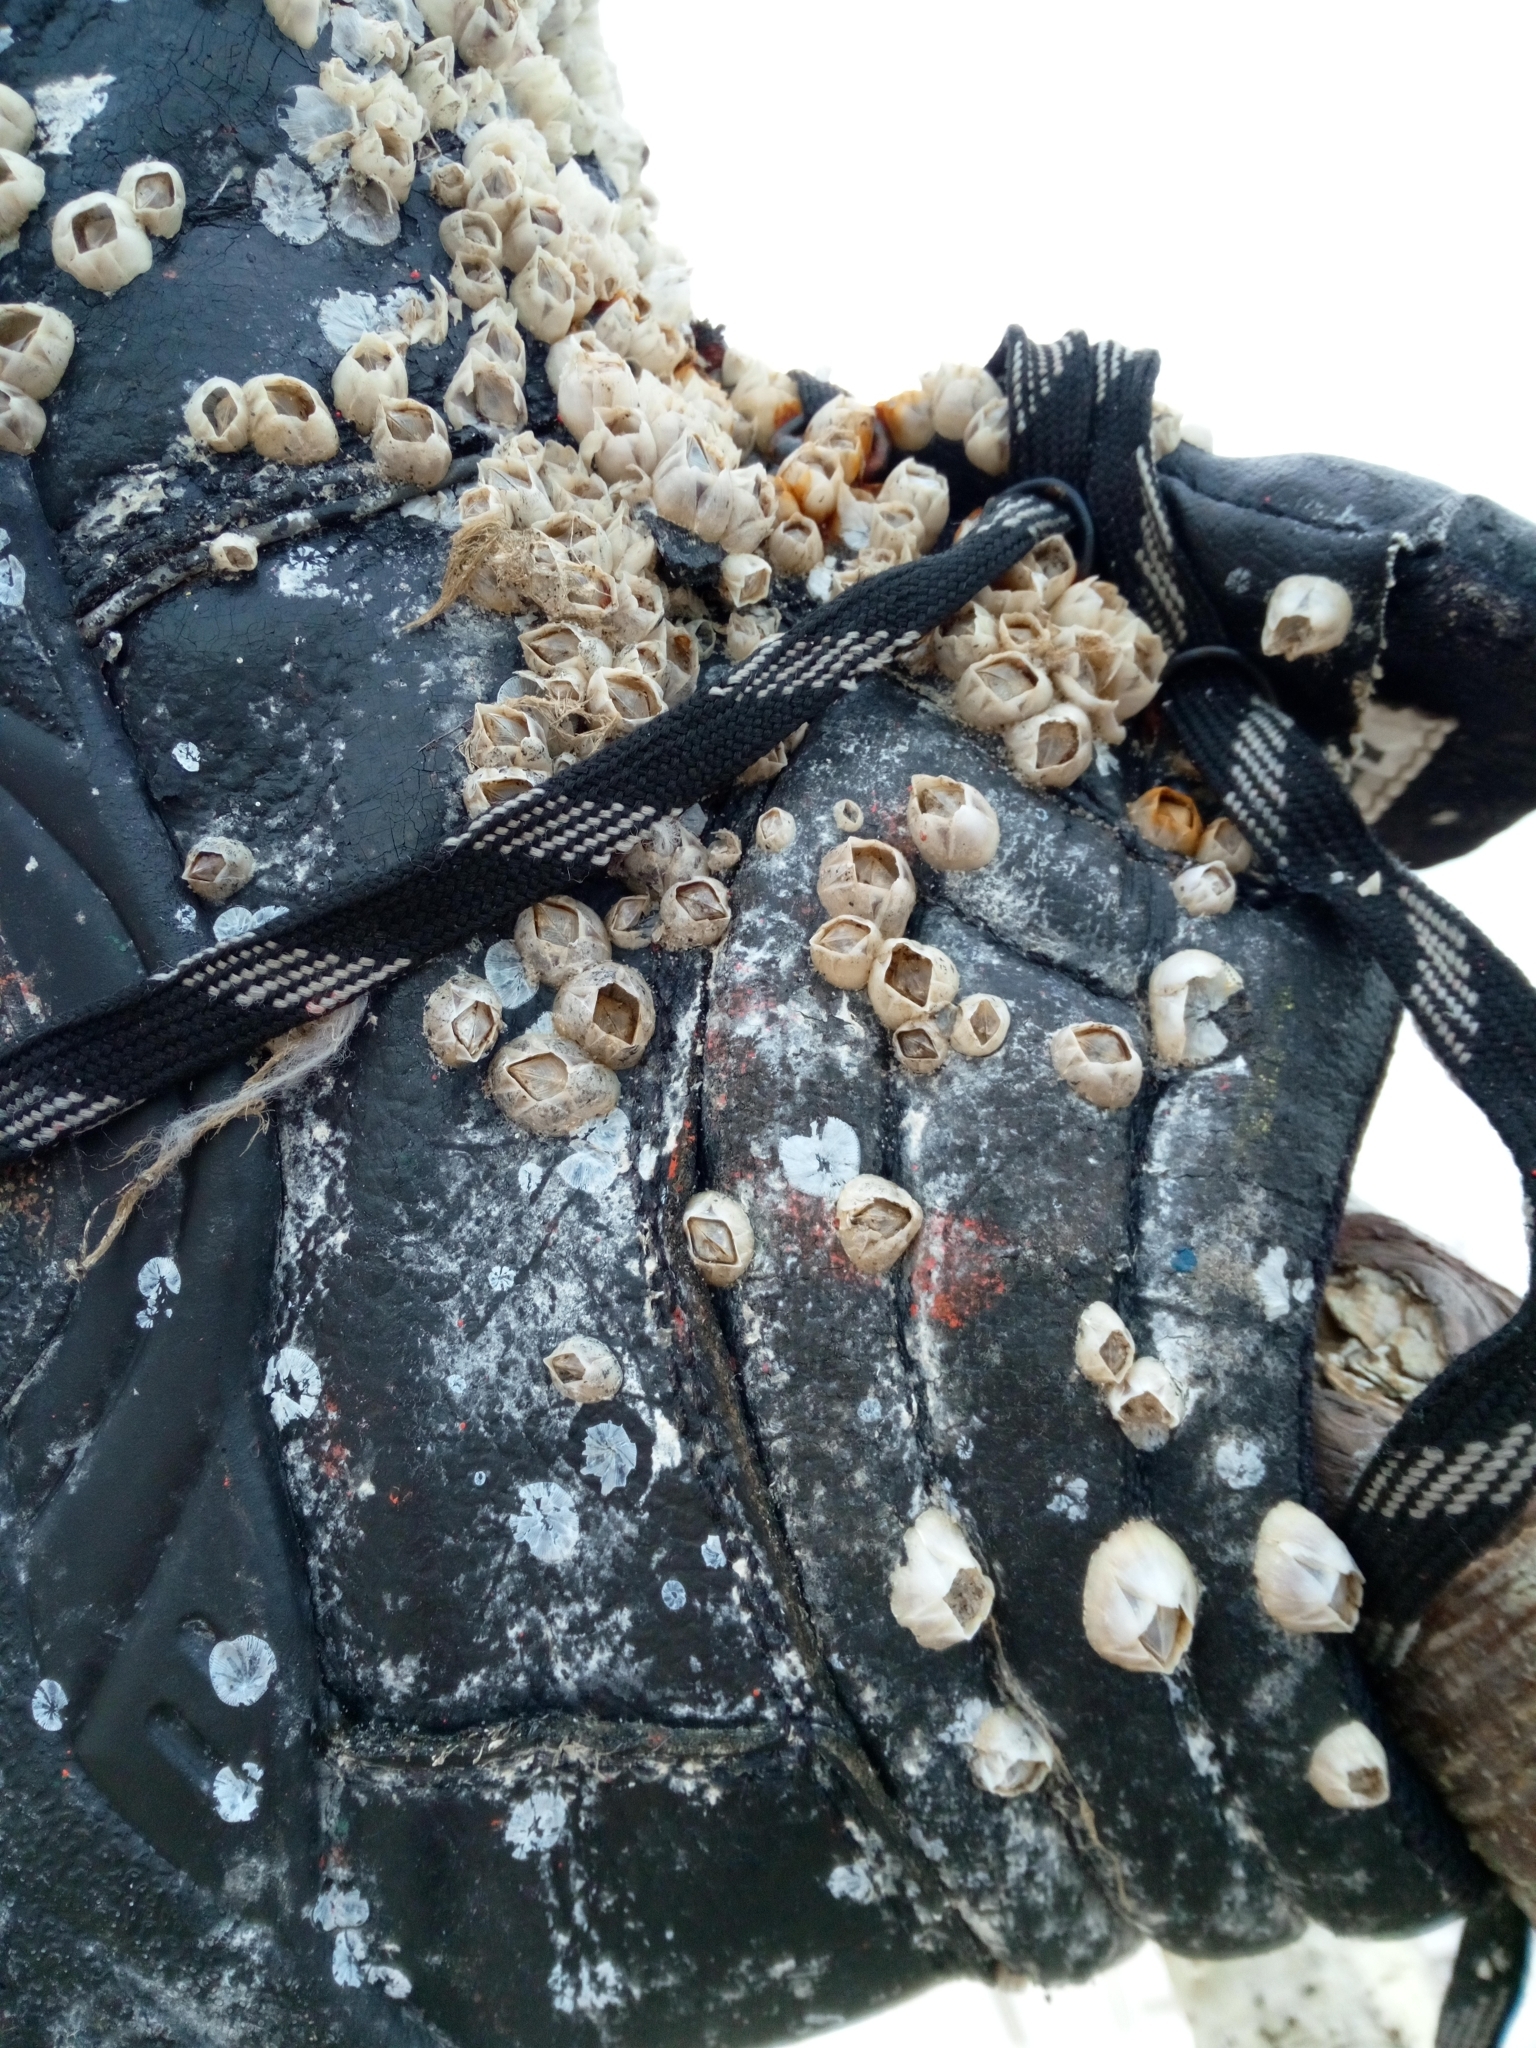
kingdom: Animalia
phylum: Arthropoda
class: Maxillopoda
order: Sessilia
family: Balanidae
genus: Amphibalanus
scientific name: Amphibalanus improvisus
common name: Bay barnacle
